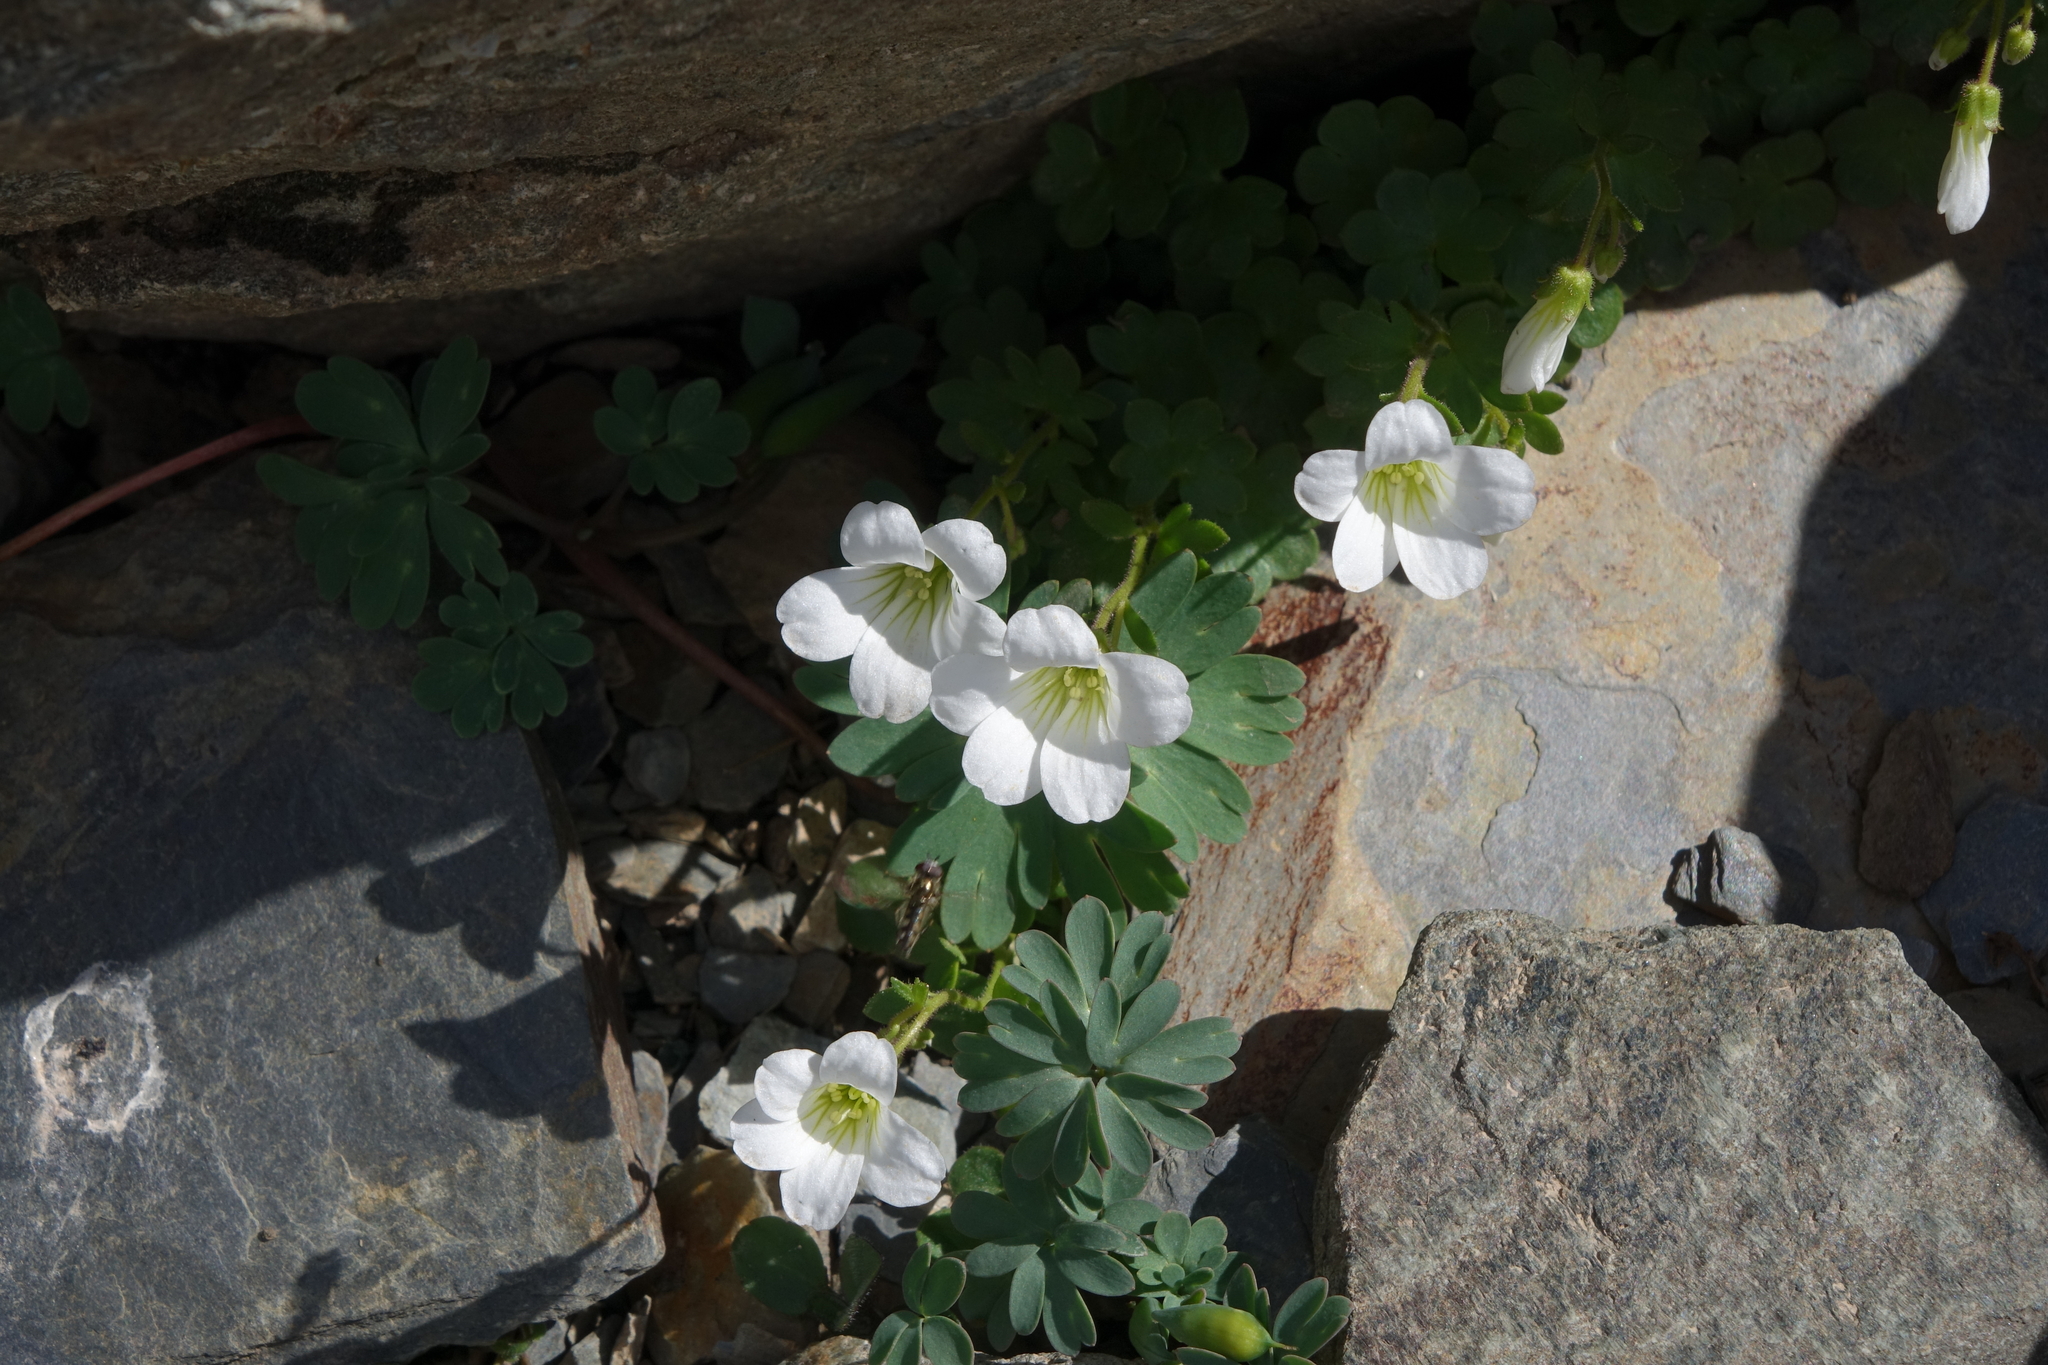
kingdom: Plantae
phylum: Tracheophyta
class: Magnoliopsida
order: Saxifragales
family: Saxifragaceae
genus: Saxifraga
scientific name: Saxifraga sibirica
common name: Siberian saxifrage
